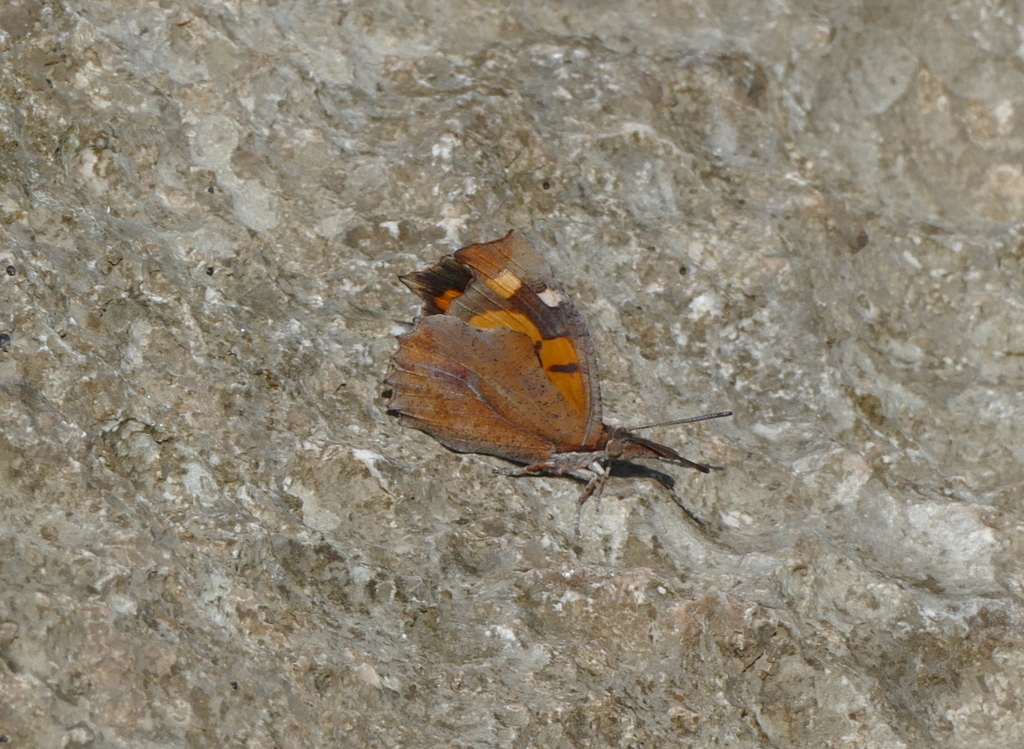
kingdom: Animalia
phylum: Arthropoda
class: Insecta
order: Lepidoptera
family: Nymphalidae
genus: Libythea
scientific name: Libythea celtis
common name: Nettle-tree butterfly
